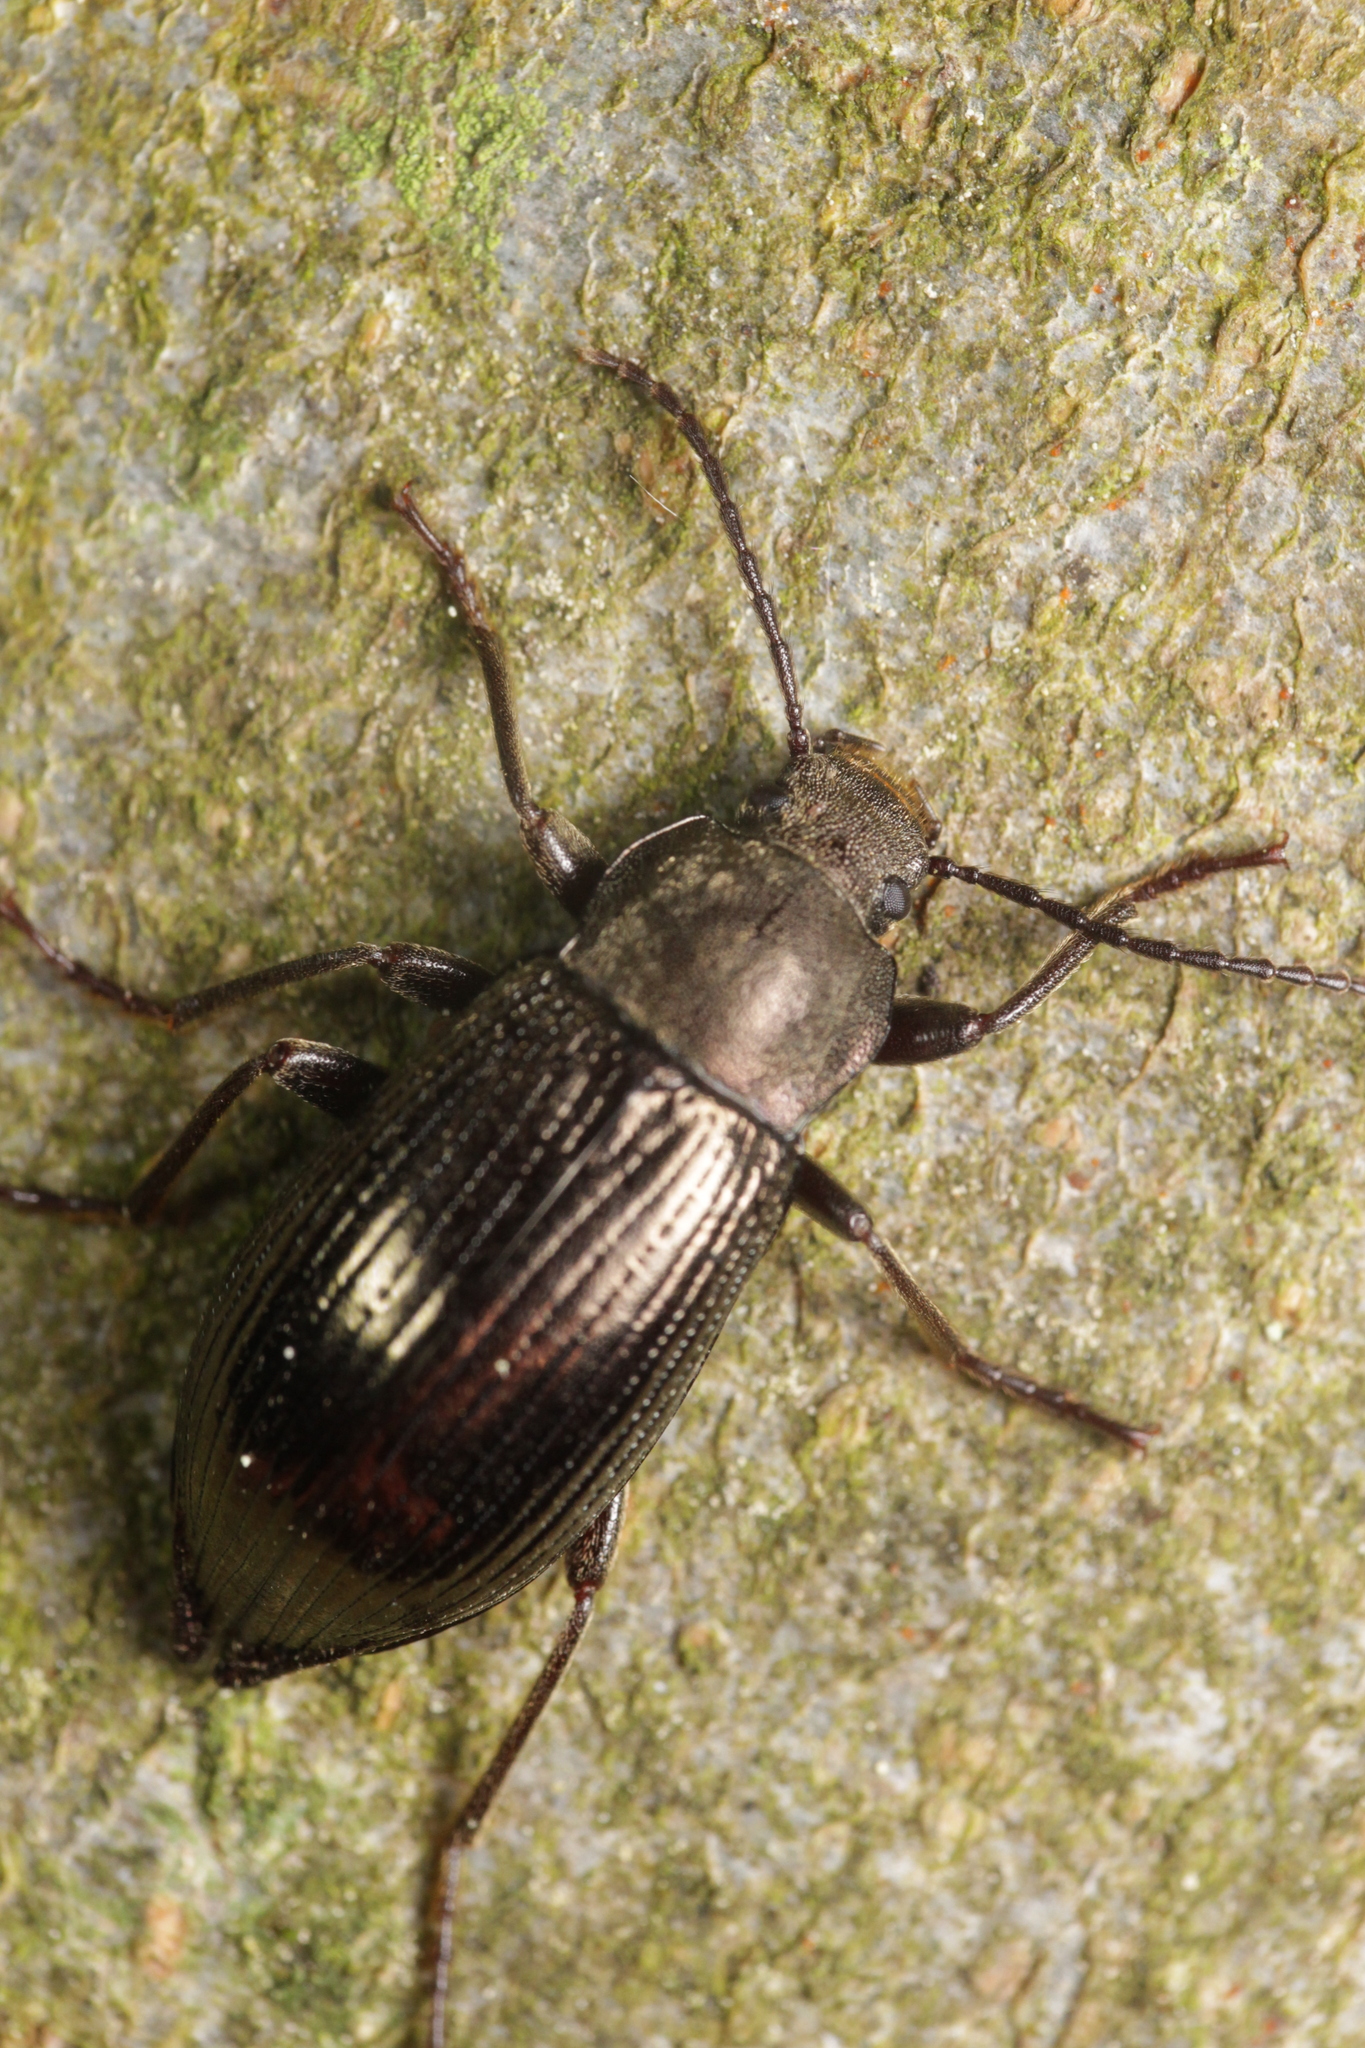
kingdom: Animalia
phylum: Arthropoda
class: Insecta
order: Coleoptera
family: Tenebrionidae
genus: Stenomax
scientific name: Stenomax aeneus
